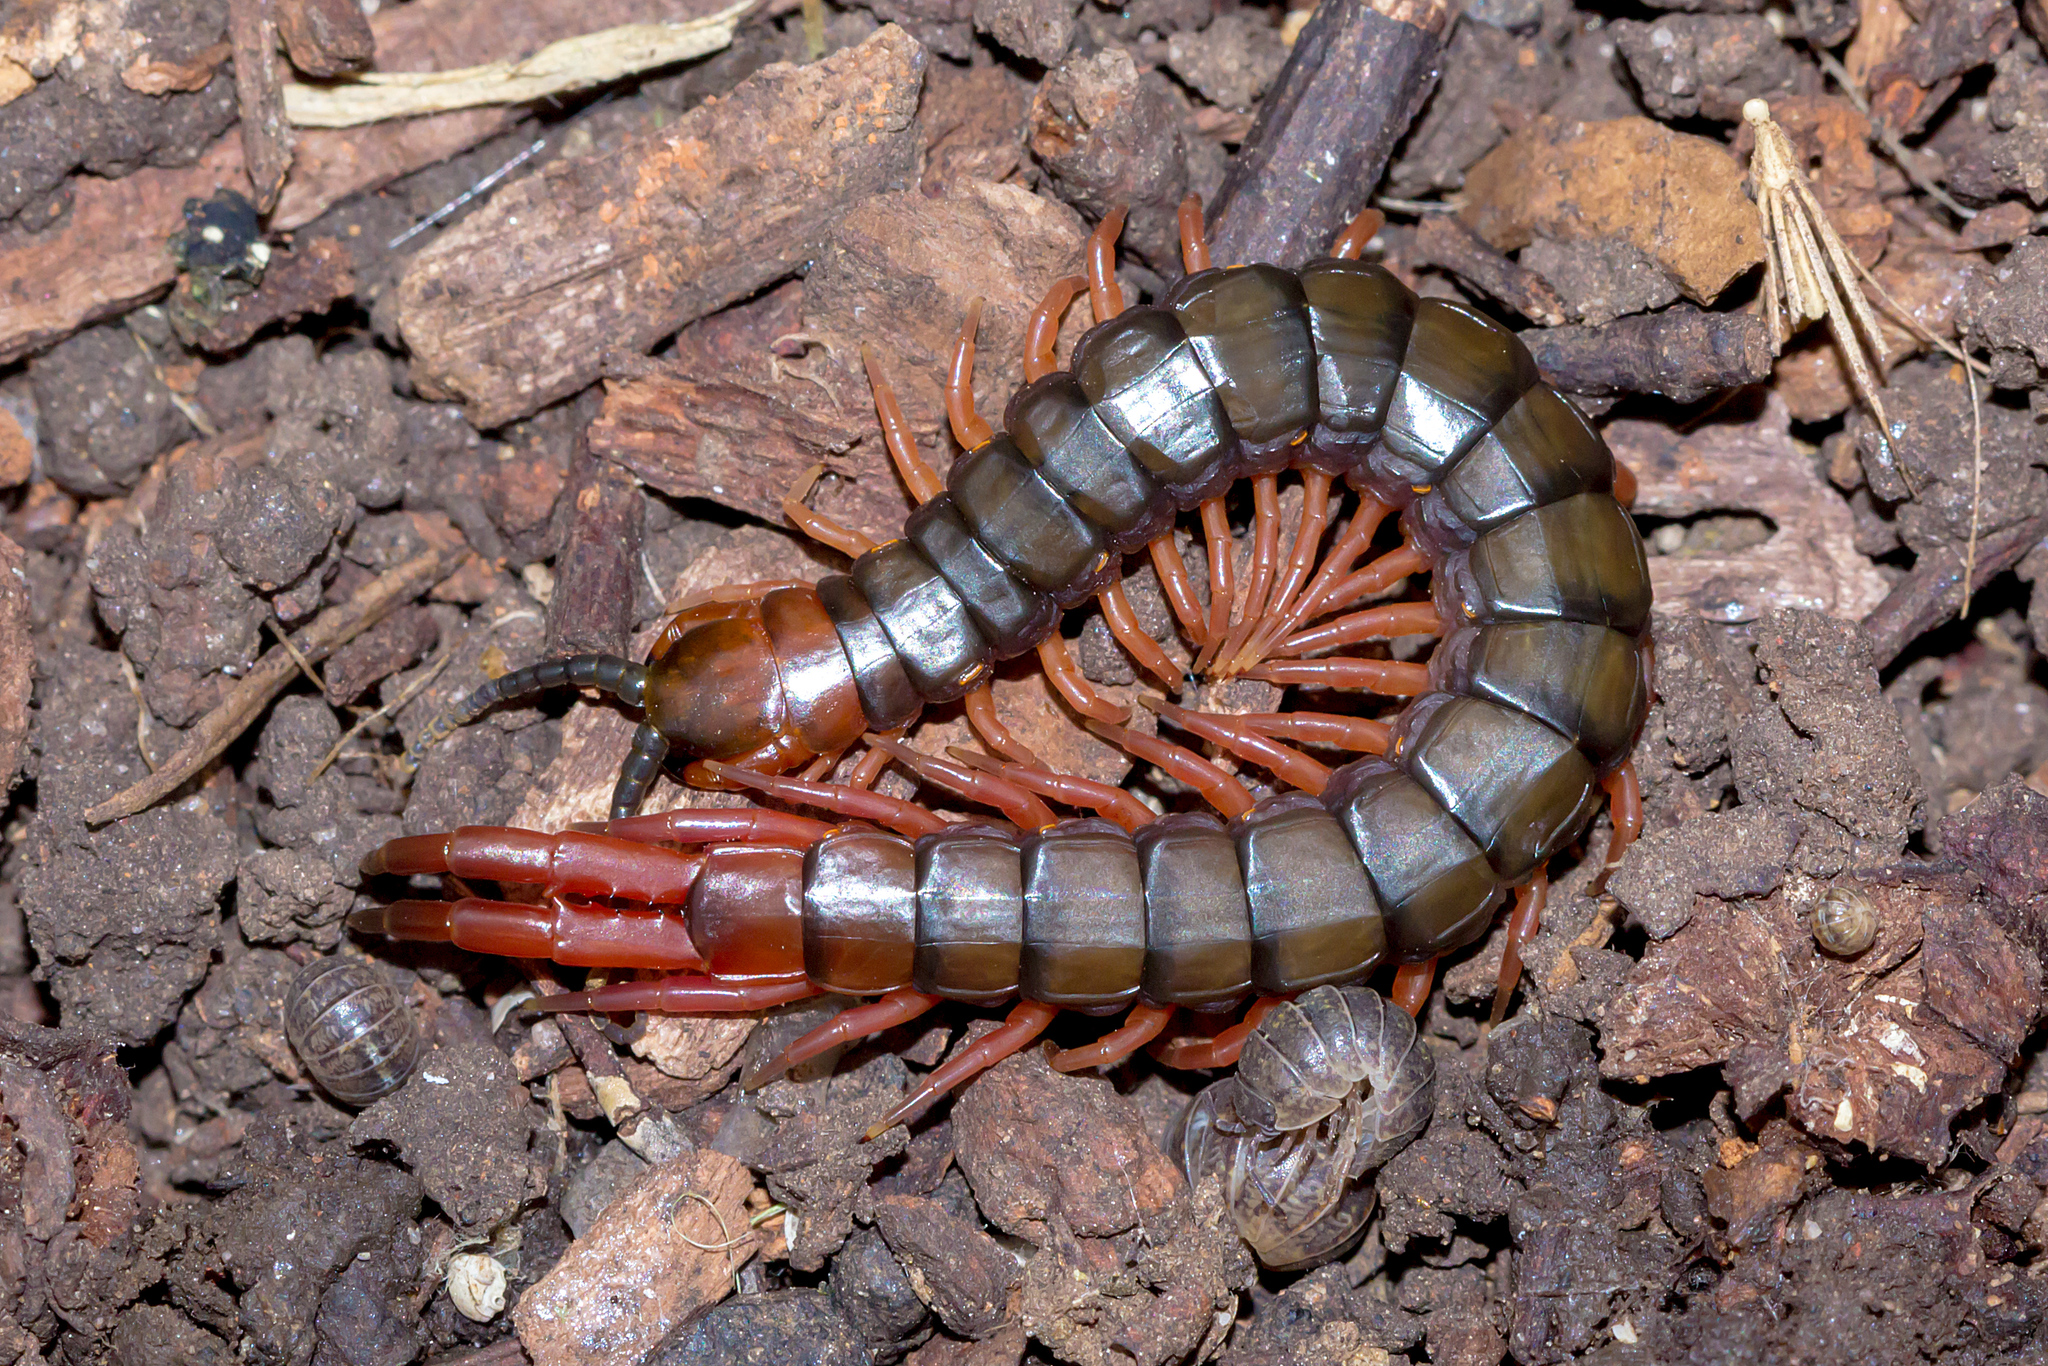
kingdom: Animalia
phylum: Arthropoda
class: Chilopoda
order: Scolopendromorpha
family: Scolopendridae
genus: Cormocephalus
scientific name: Cormocephalus aurantiipes
